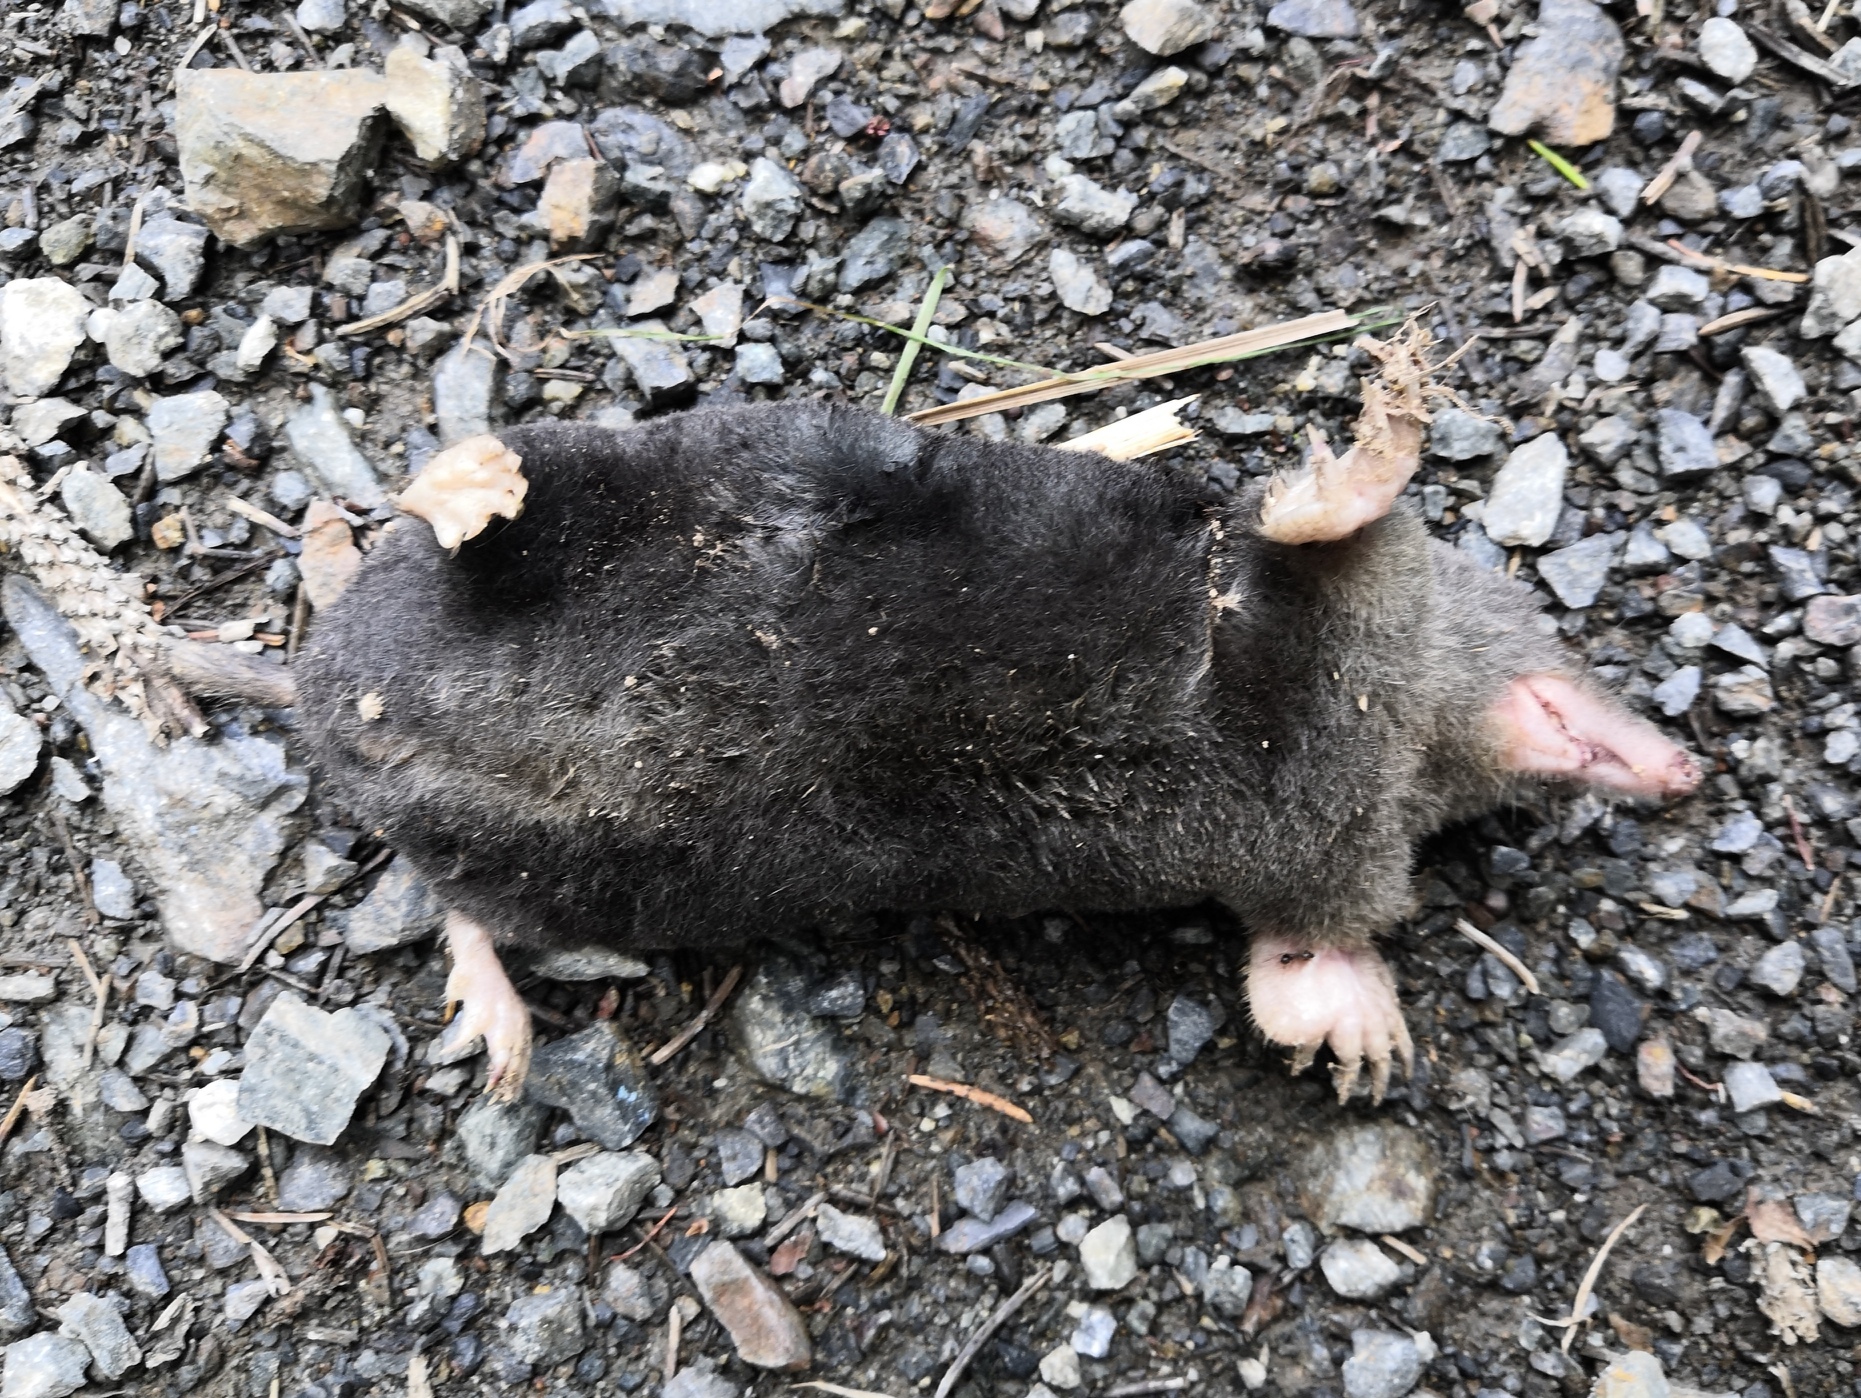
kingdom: Animalia
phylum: Chordata
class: Mammalia
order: Soricomorpha
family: Talpidae
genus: Talpa
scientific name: Talpa europaea
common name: European mole
